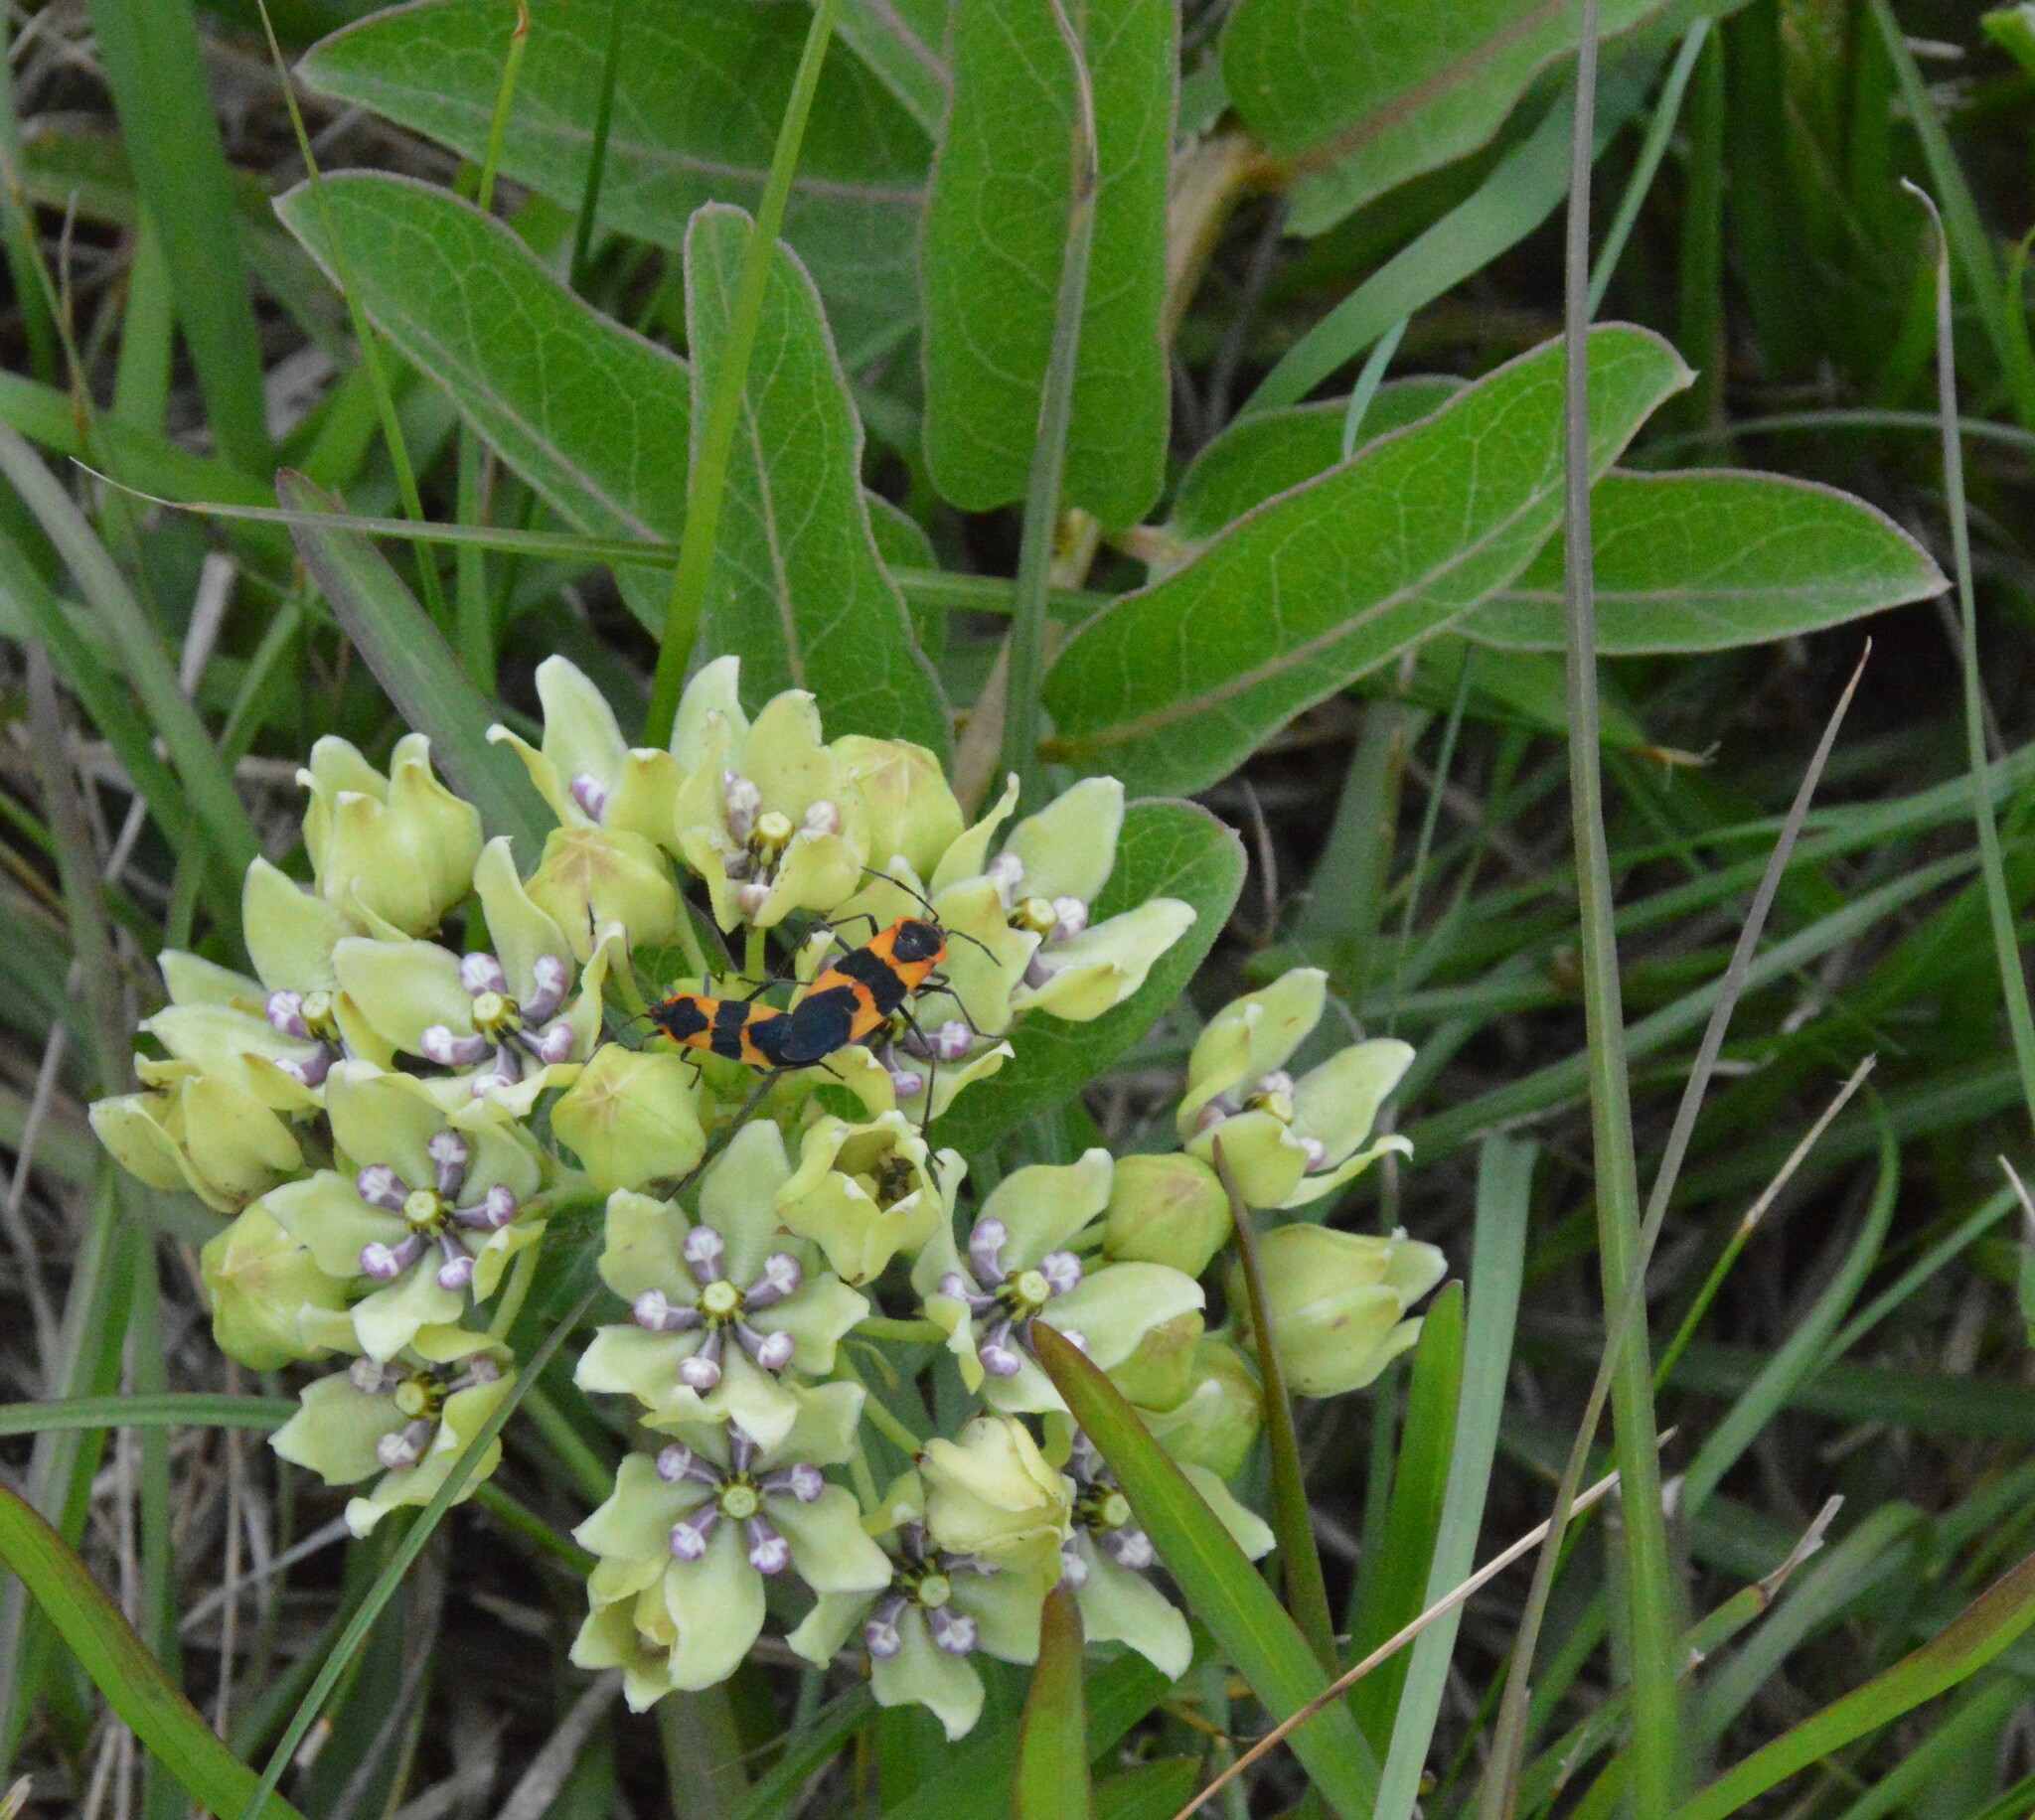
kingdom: Plantae
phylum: Tracheophyta
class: Magnoliopsida
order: Gentianales
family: Apocynaceae
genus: Asclepias
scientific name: Asclepias viridis
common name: Antelope-horns
